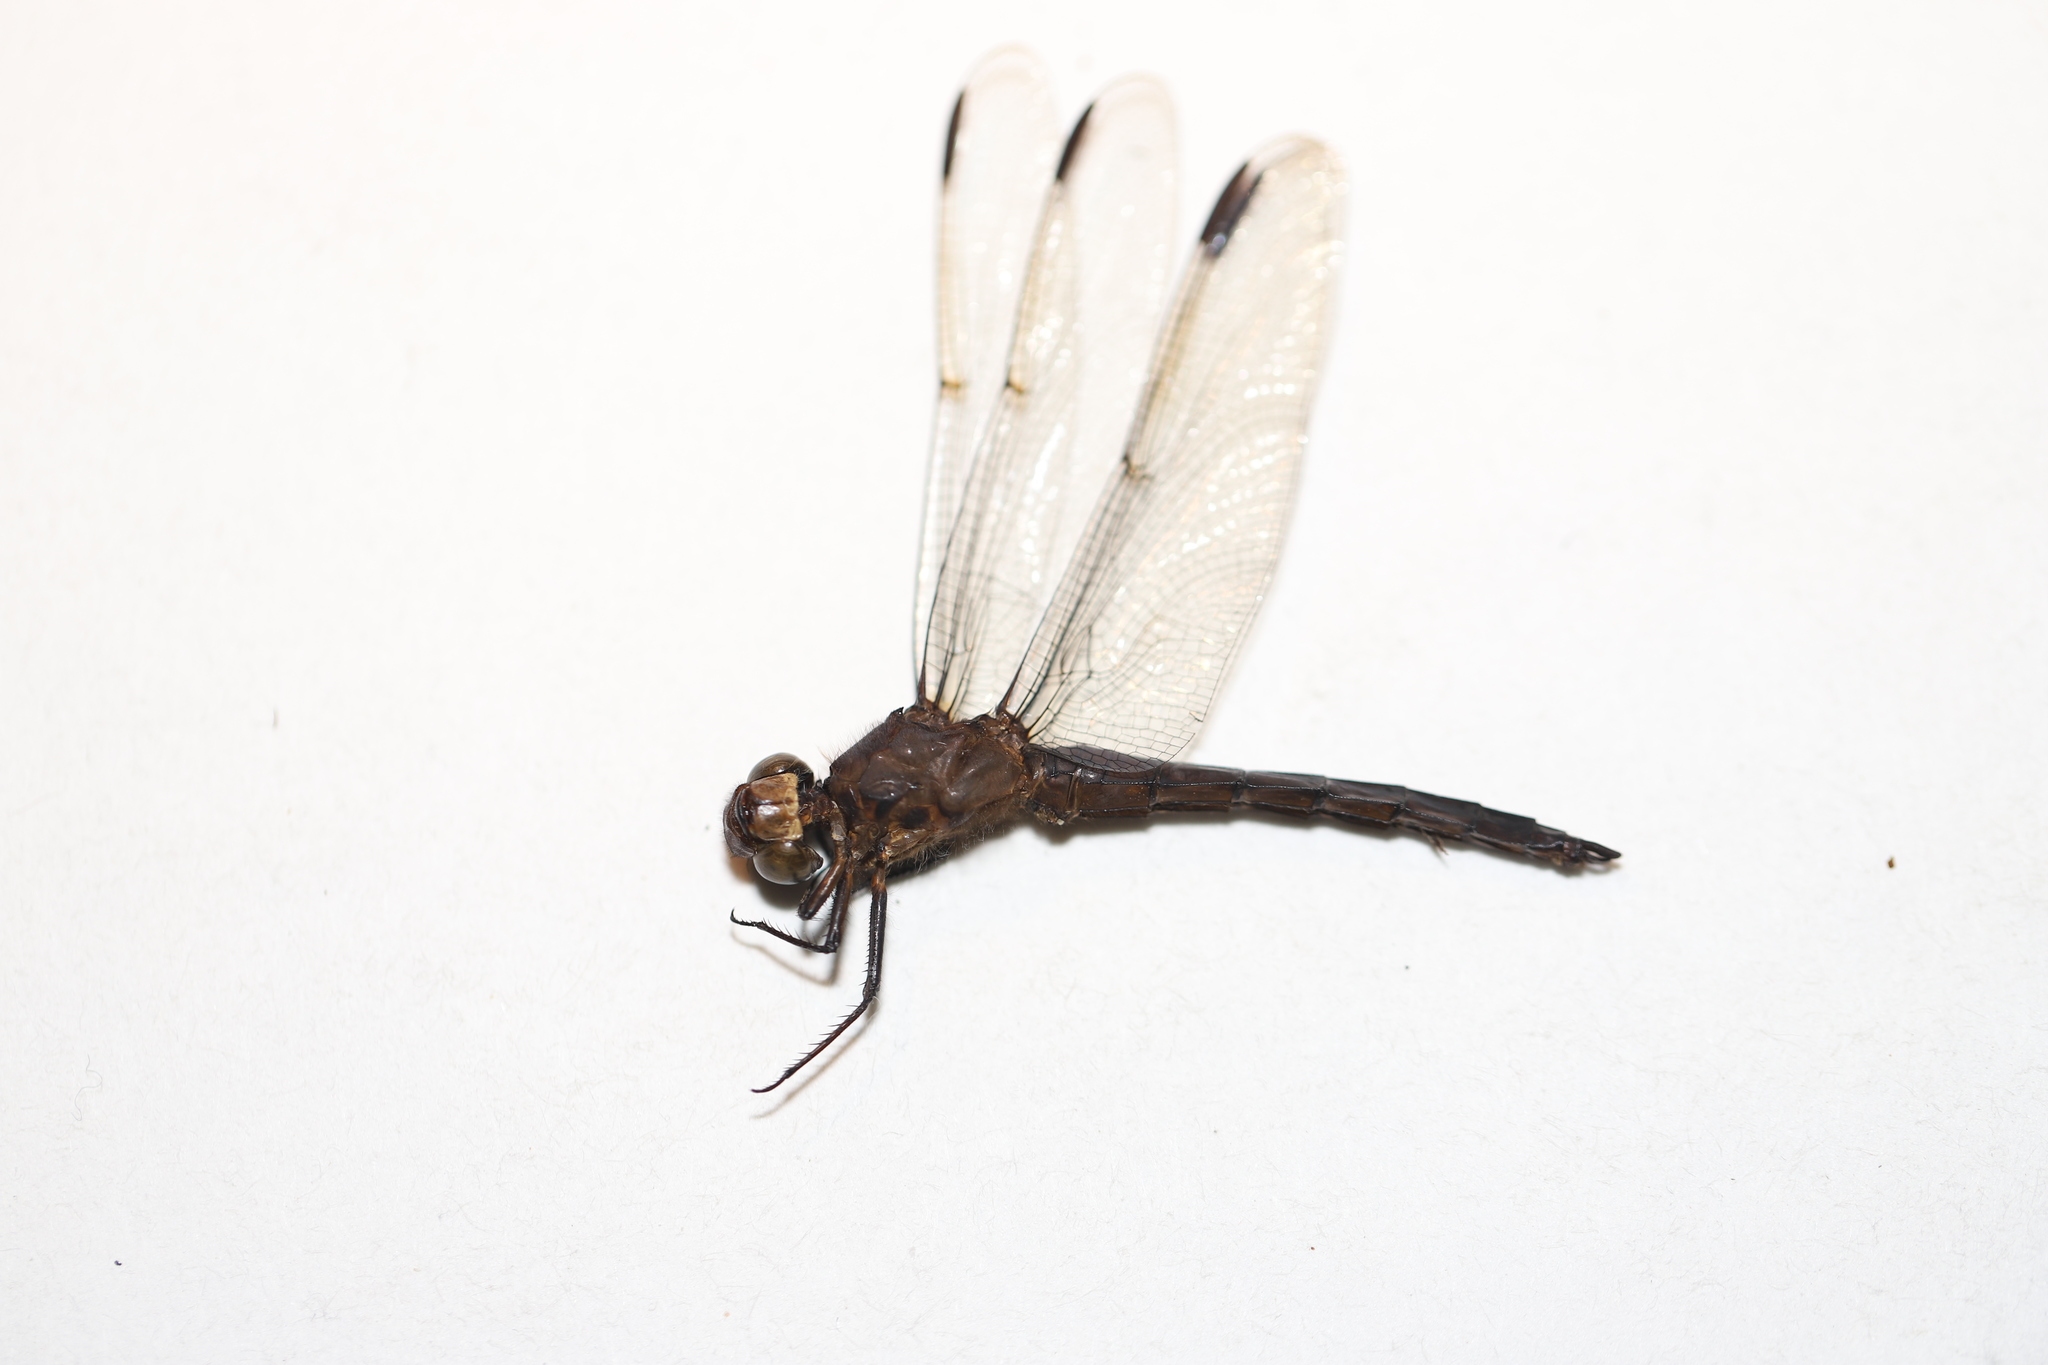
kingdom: Animalia
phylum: Arthropoda
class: Insecta
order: Odonata
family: Libellulidae
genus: Libellula
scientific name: Libellula incesta
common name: Slaty skimmer
